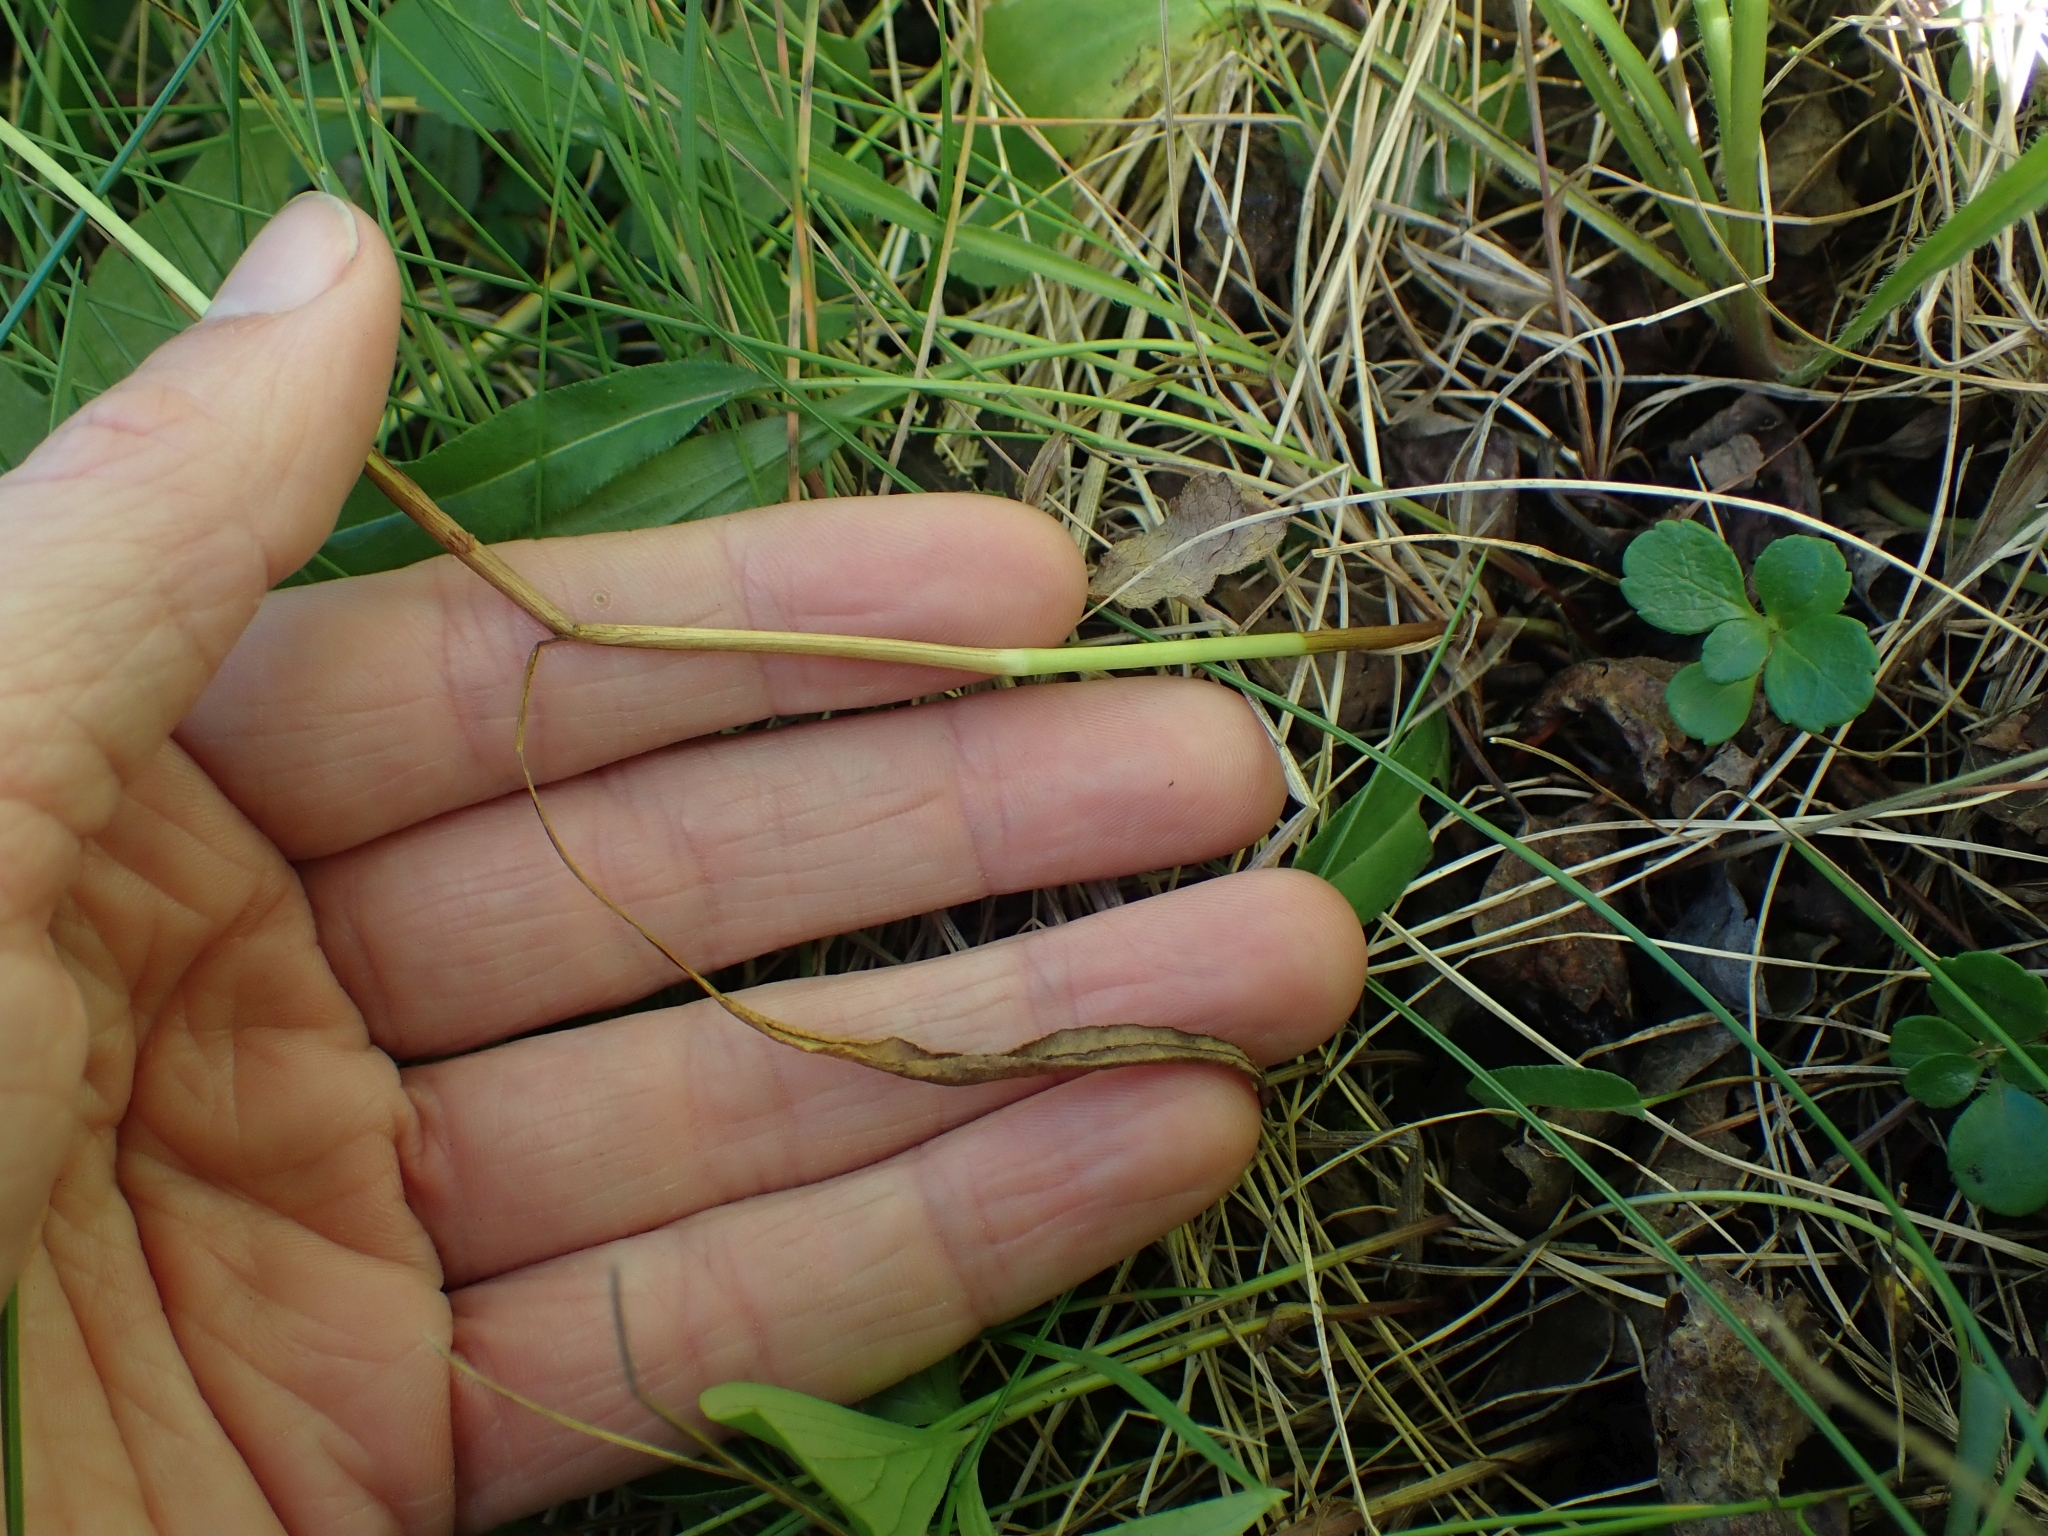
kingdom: Plantae
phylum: Tracheophyta
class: Magnoliopsida
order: Caryophyllales
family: Polygonaceae
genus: Bistorta
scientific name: Bistorta vivipara
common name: Alpine bistort
